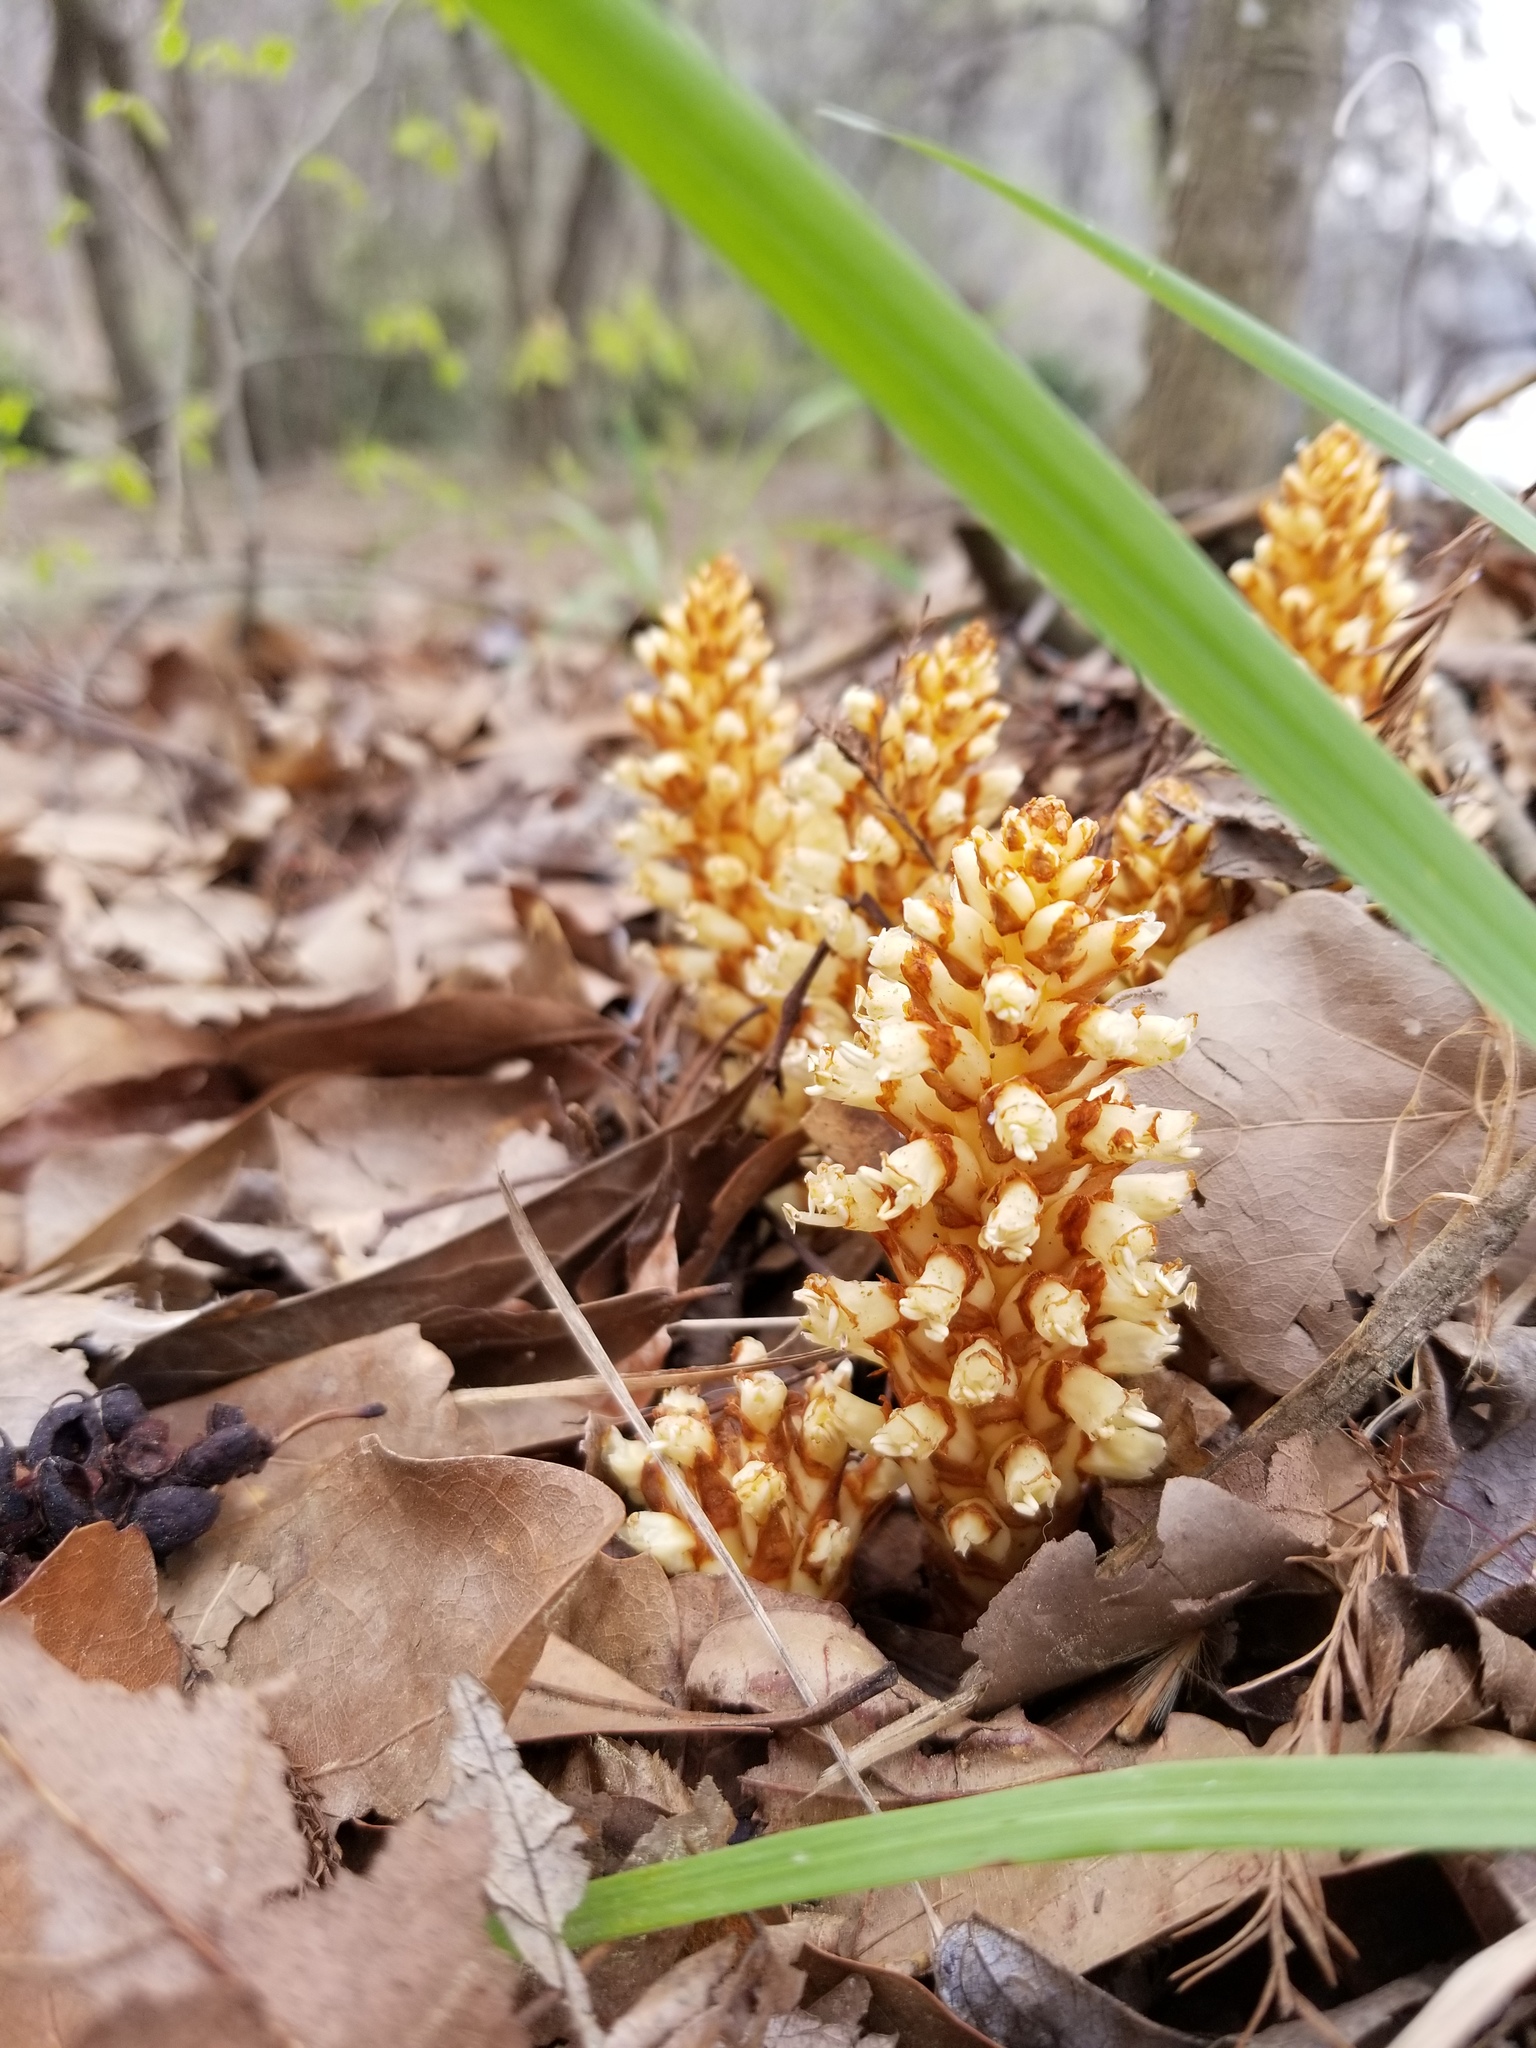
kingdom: Plantae
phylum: Tracheophyta
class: Magnoliopsida
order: Lamiales
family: Orobanchaceae
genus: Conopholis
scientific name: Conopholis americana
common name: American cancer-root
